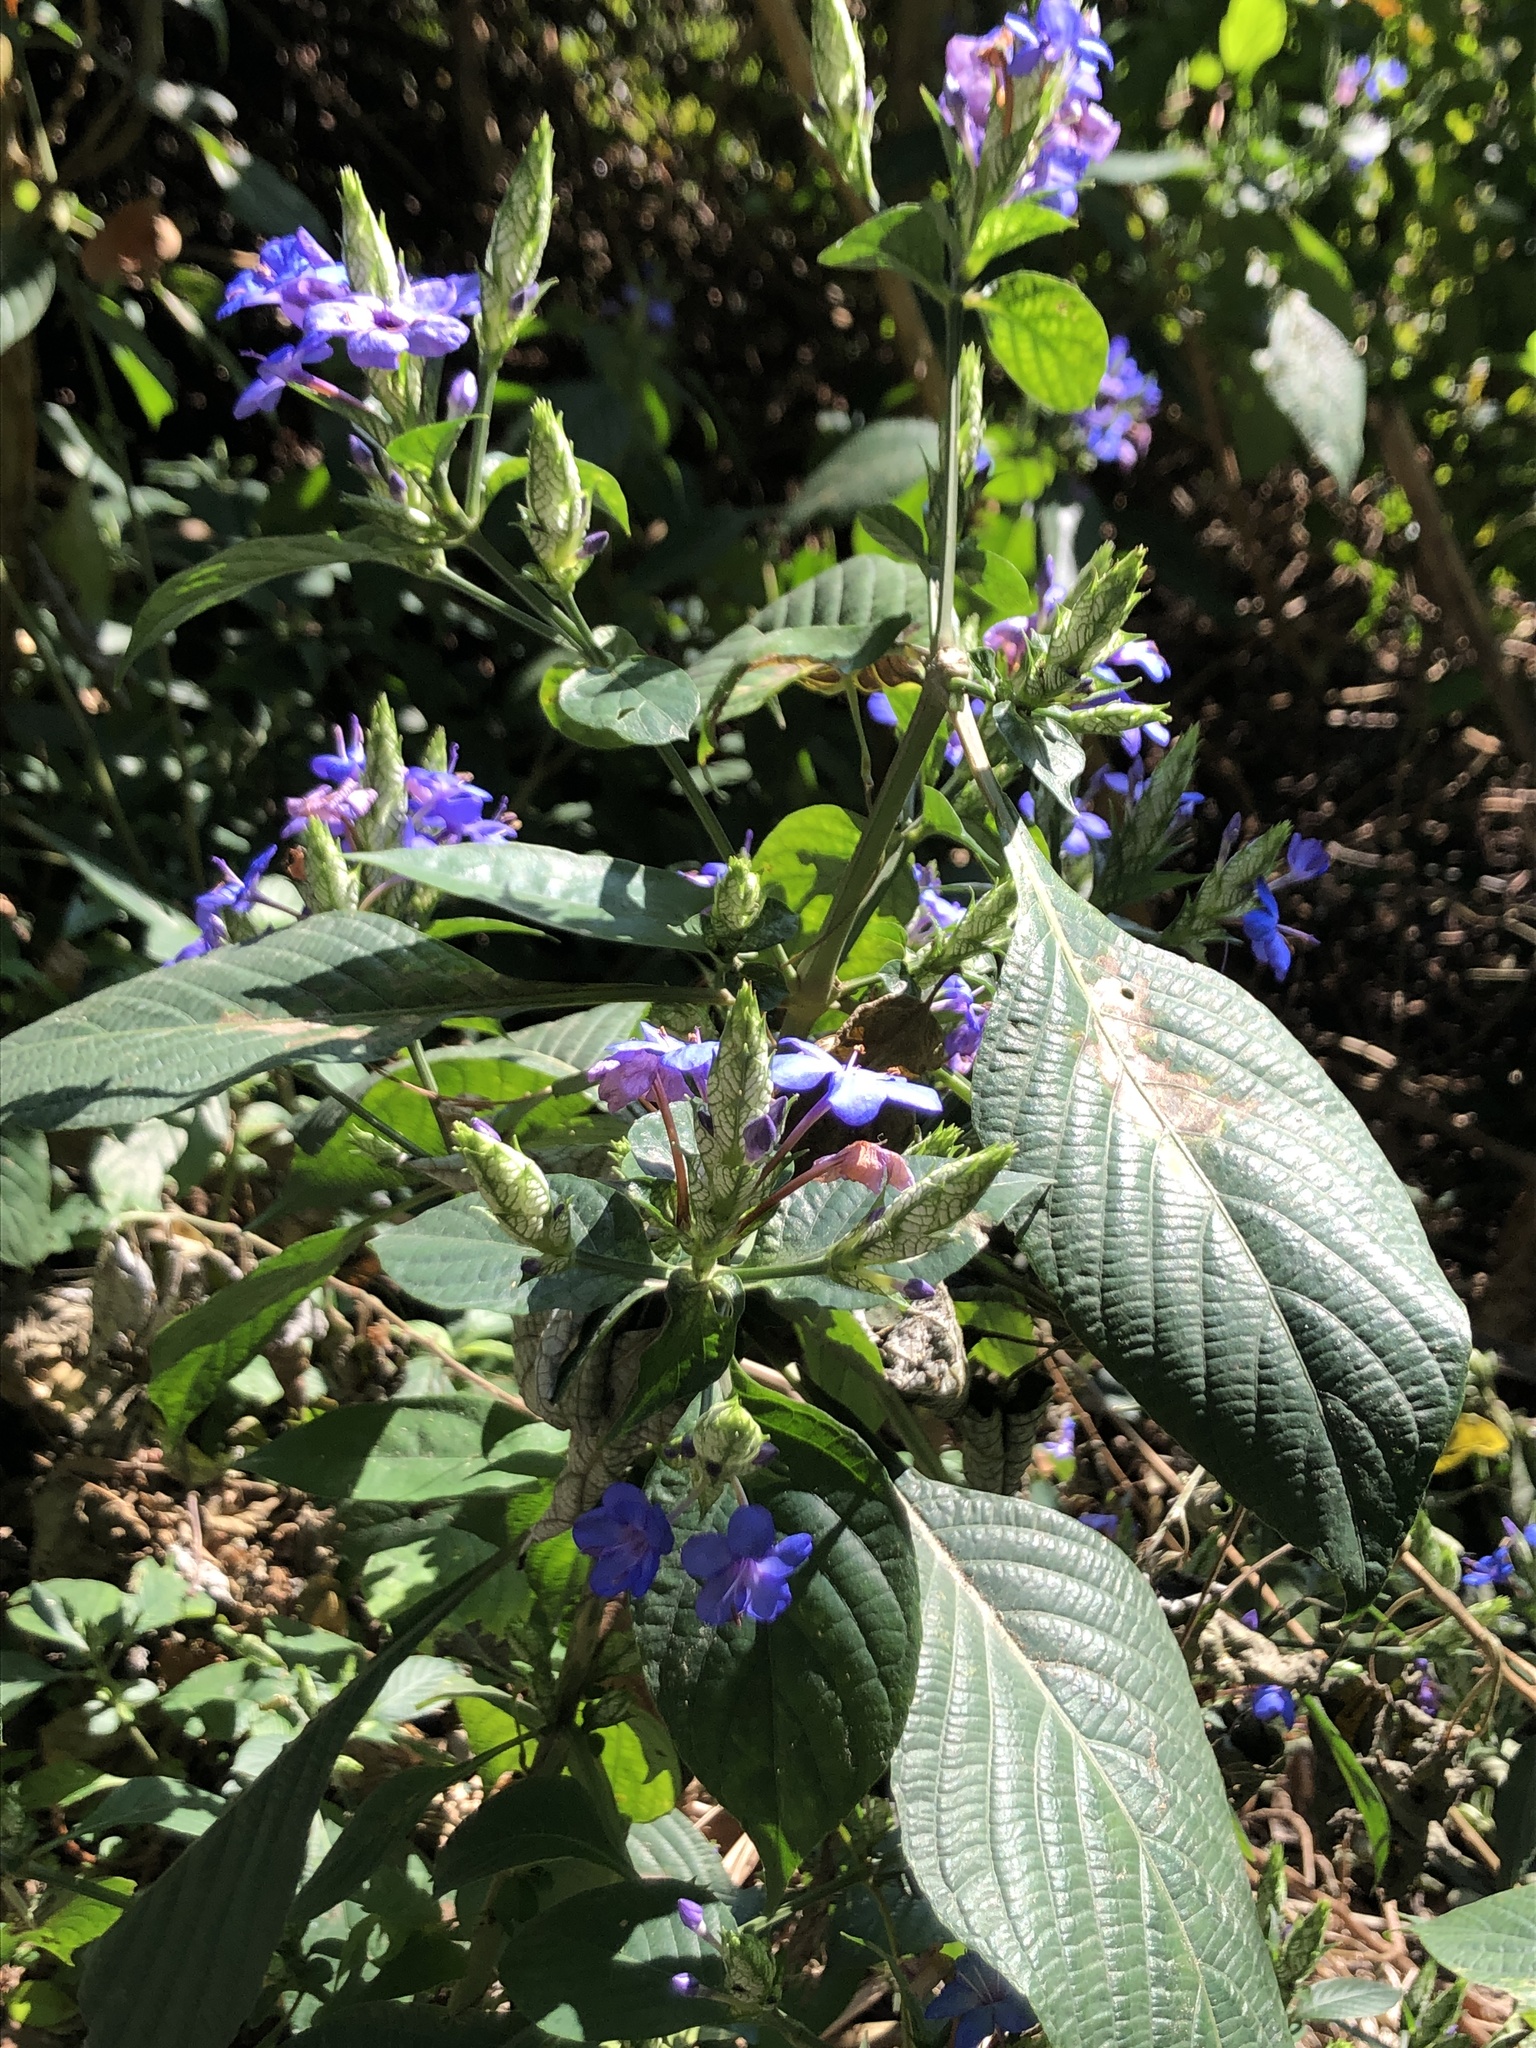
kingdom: Plantae
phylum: Tracheophyta
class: Magnoliopsida
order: Lamiales
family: Acanthaceae
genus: Eranthemum
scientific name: Eranthemum pulchellum
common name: Blue-sage
